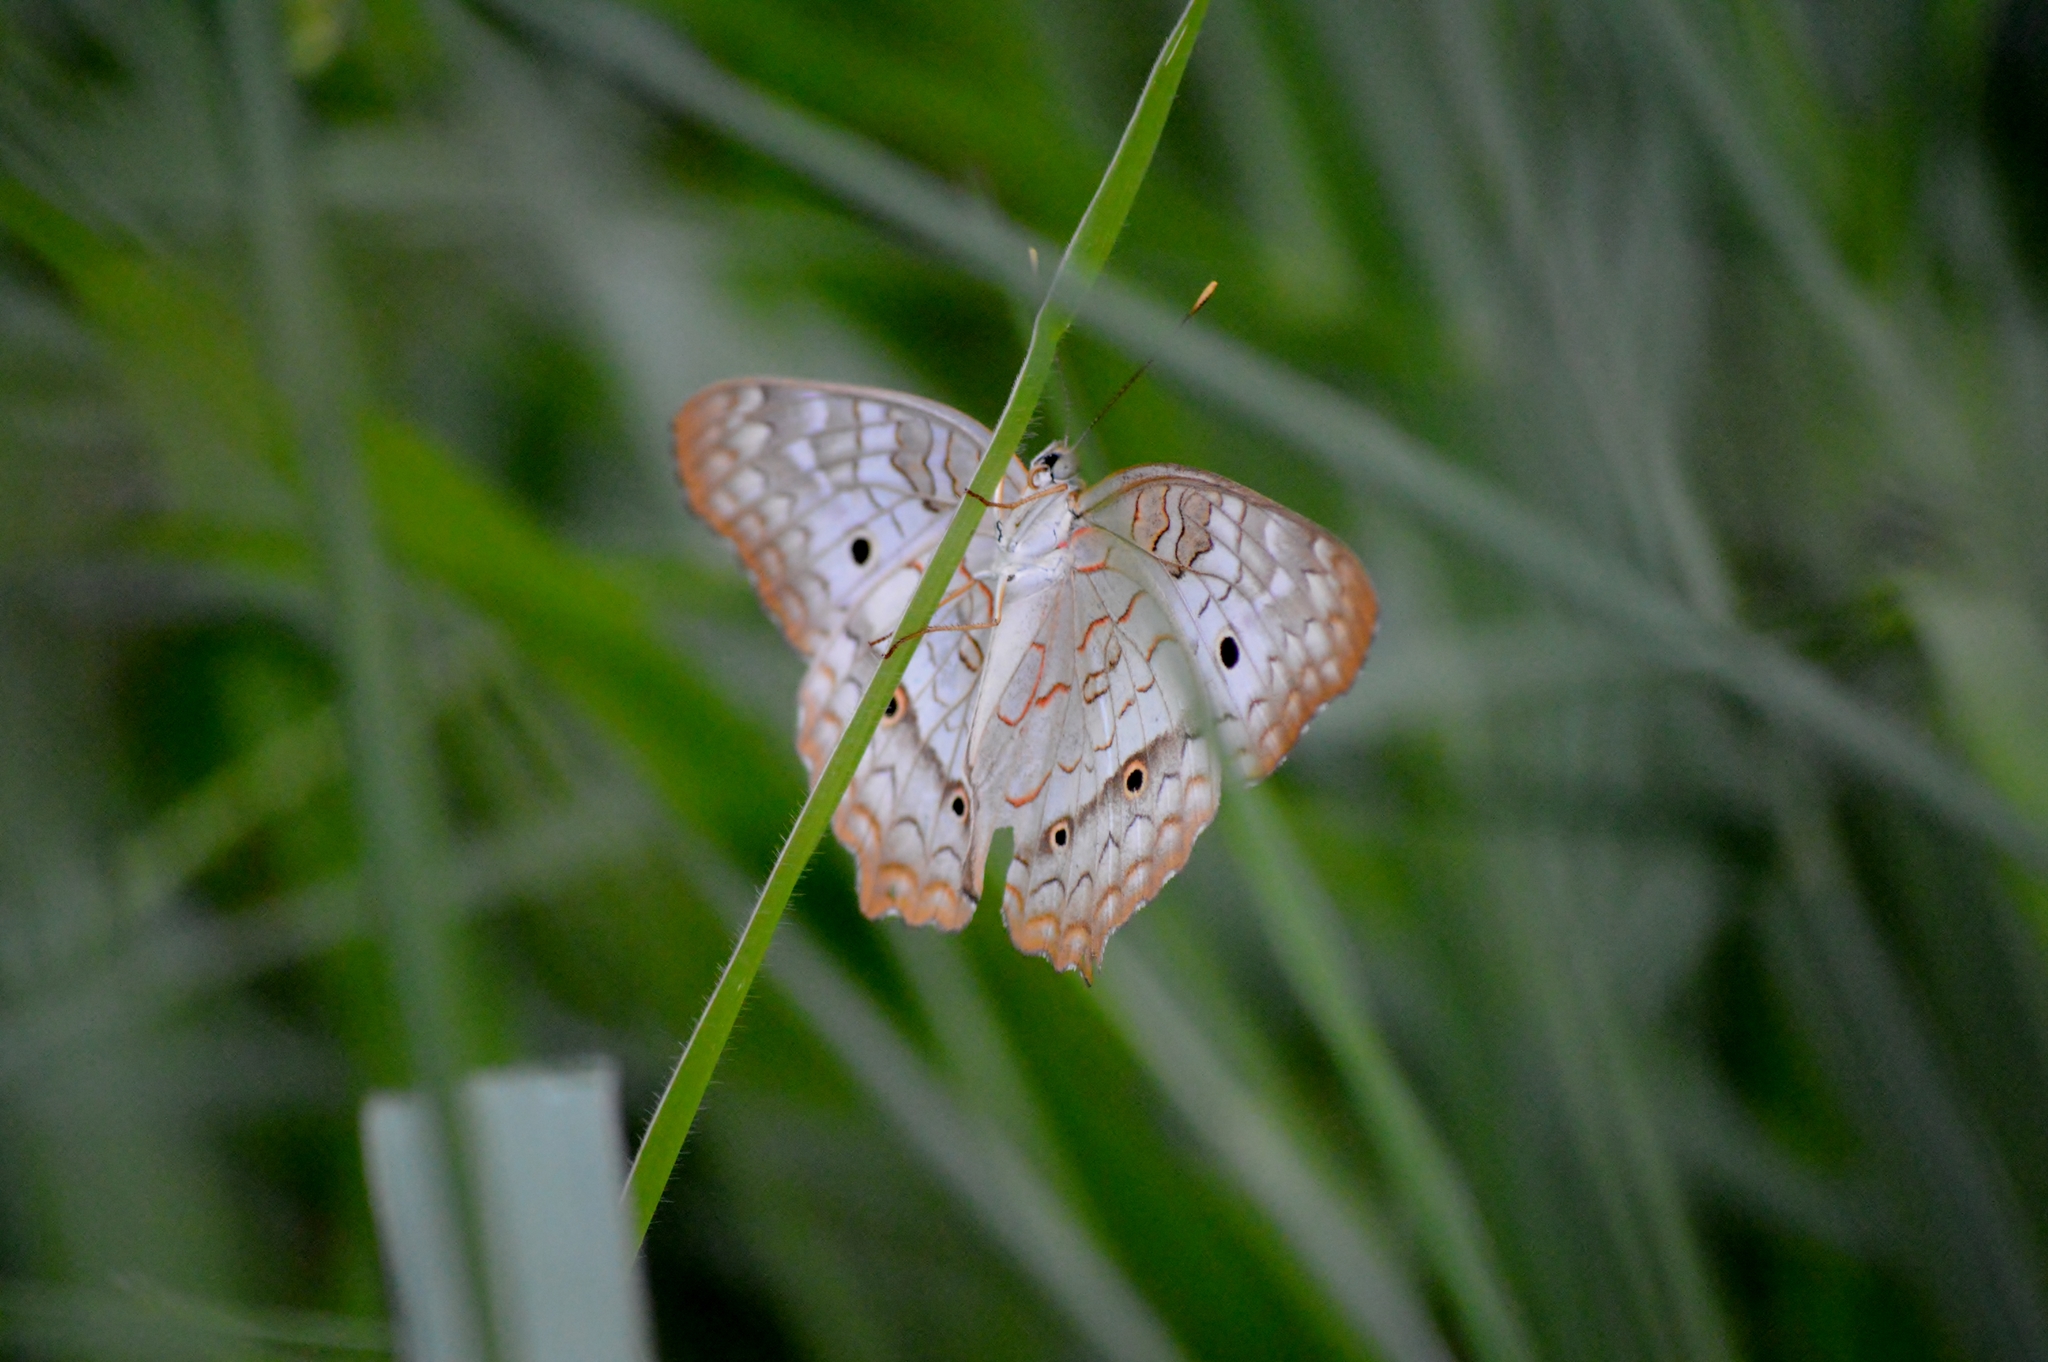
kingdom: Animalia
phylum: Arthropoda
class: Insecta
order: Lepidoptera
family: Nymphalidae
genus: Anartia
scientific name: Anartia jatrophae
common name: White peacock
